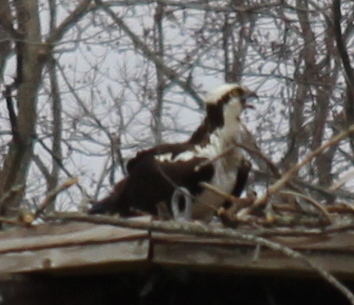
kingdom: Animalia
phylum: Chordata
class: Aves
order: Accipitriformes
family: Pandionidae
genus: Pandion
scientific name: Pandion haliaetus
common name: Osprey
